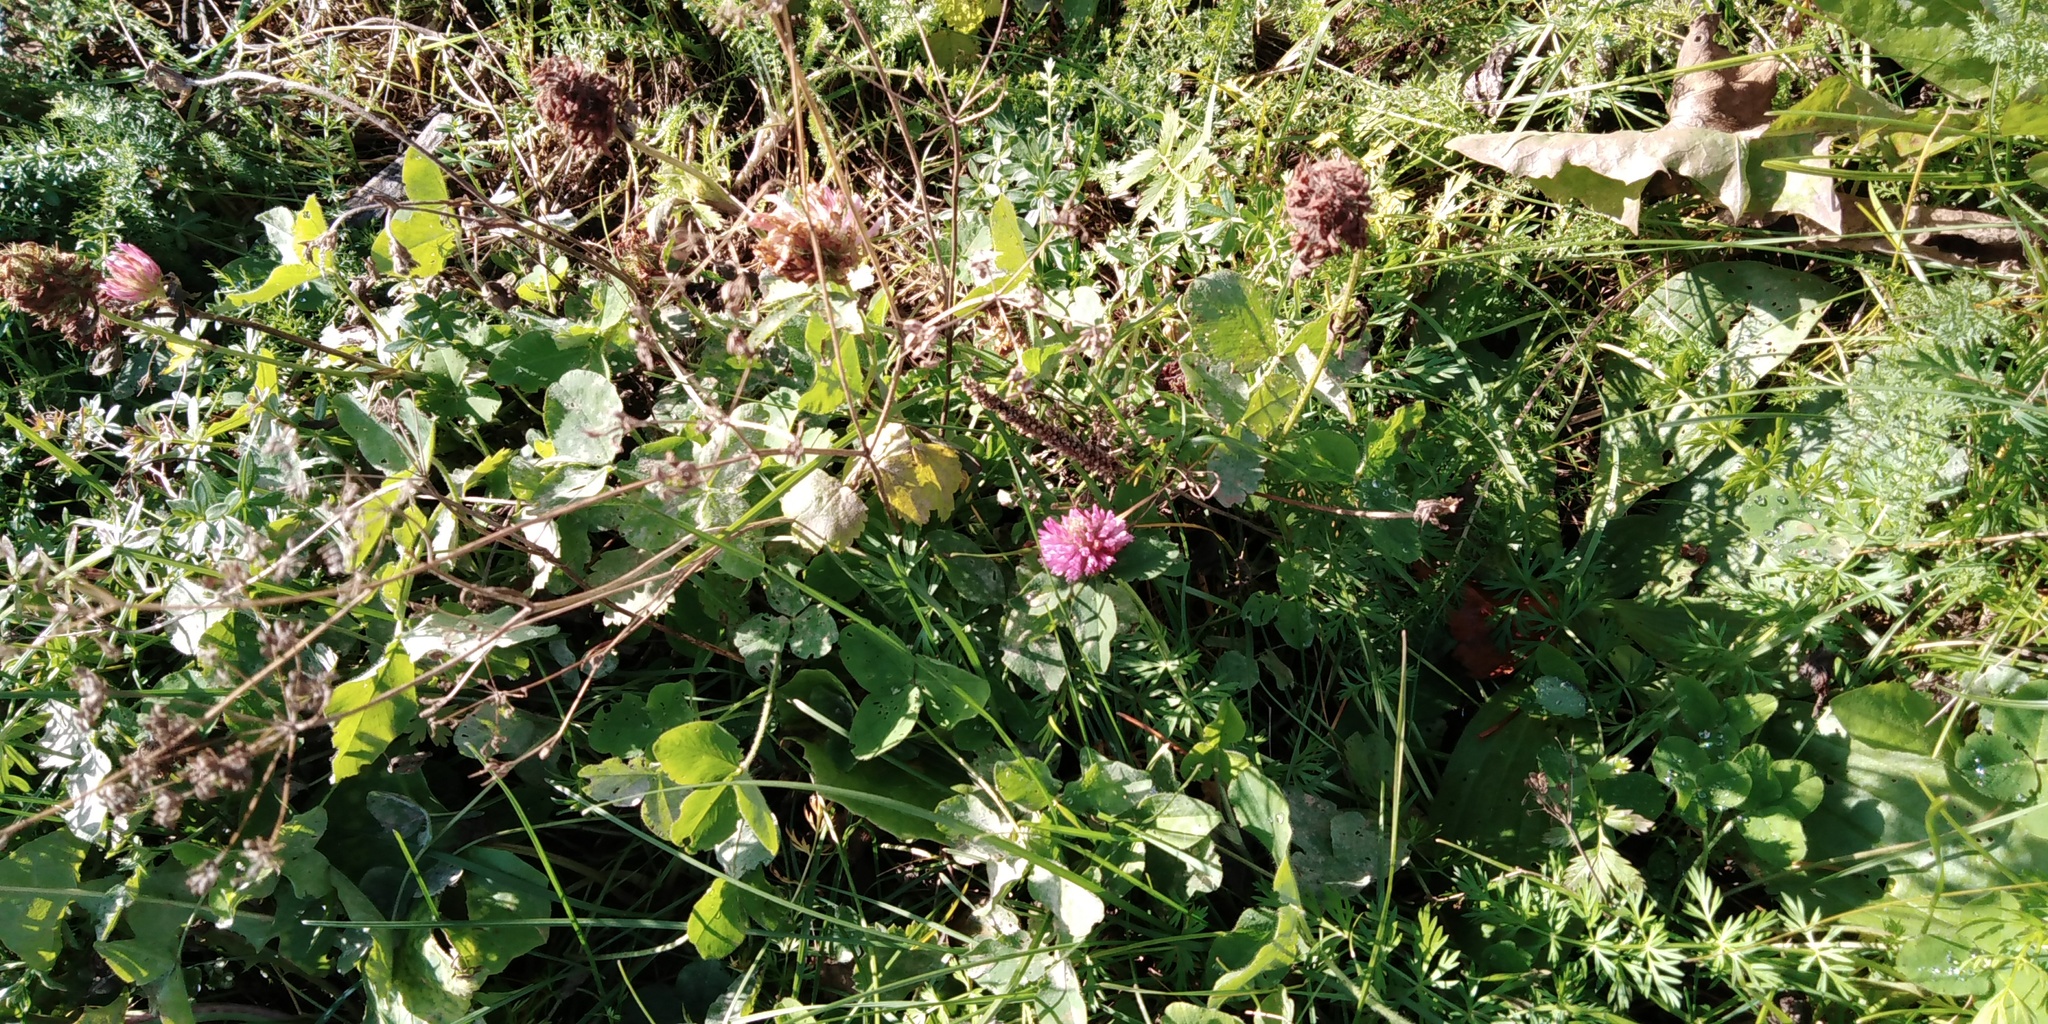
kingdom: Plantae
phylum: Tracheophyta
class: Magnoliopsida
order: Fabales
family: Fabaceae
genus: Trifolium
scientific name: Trifolium pratense
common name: Red clover
